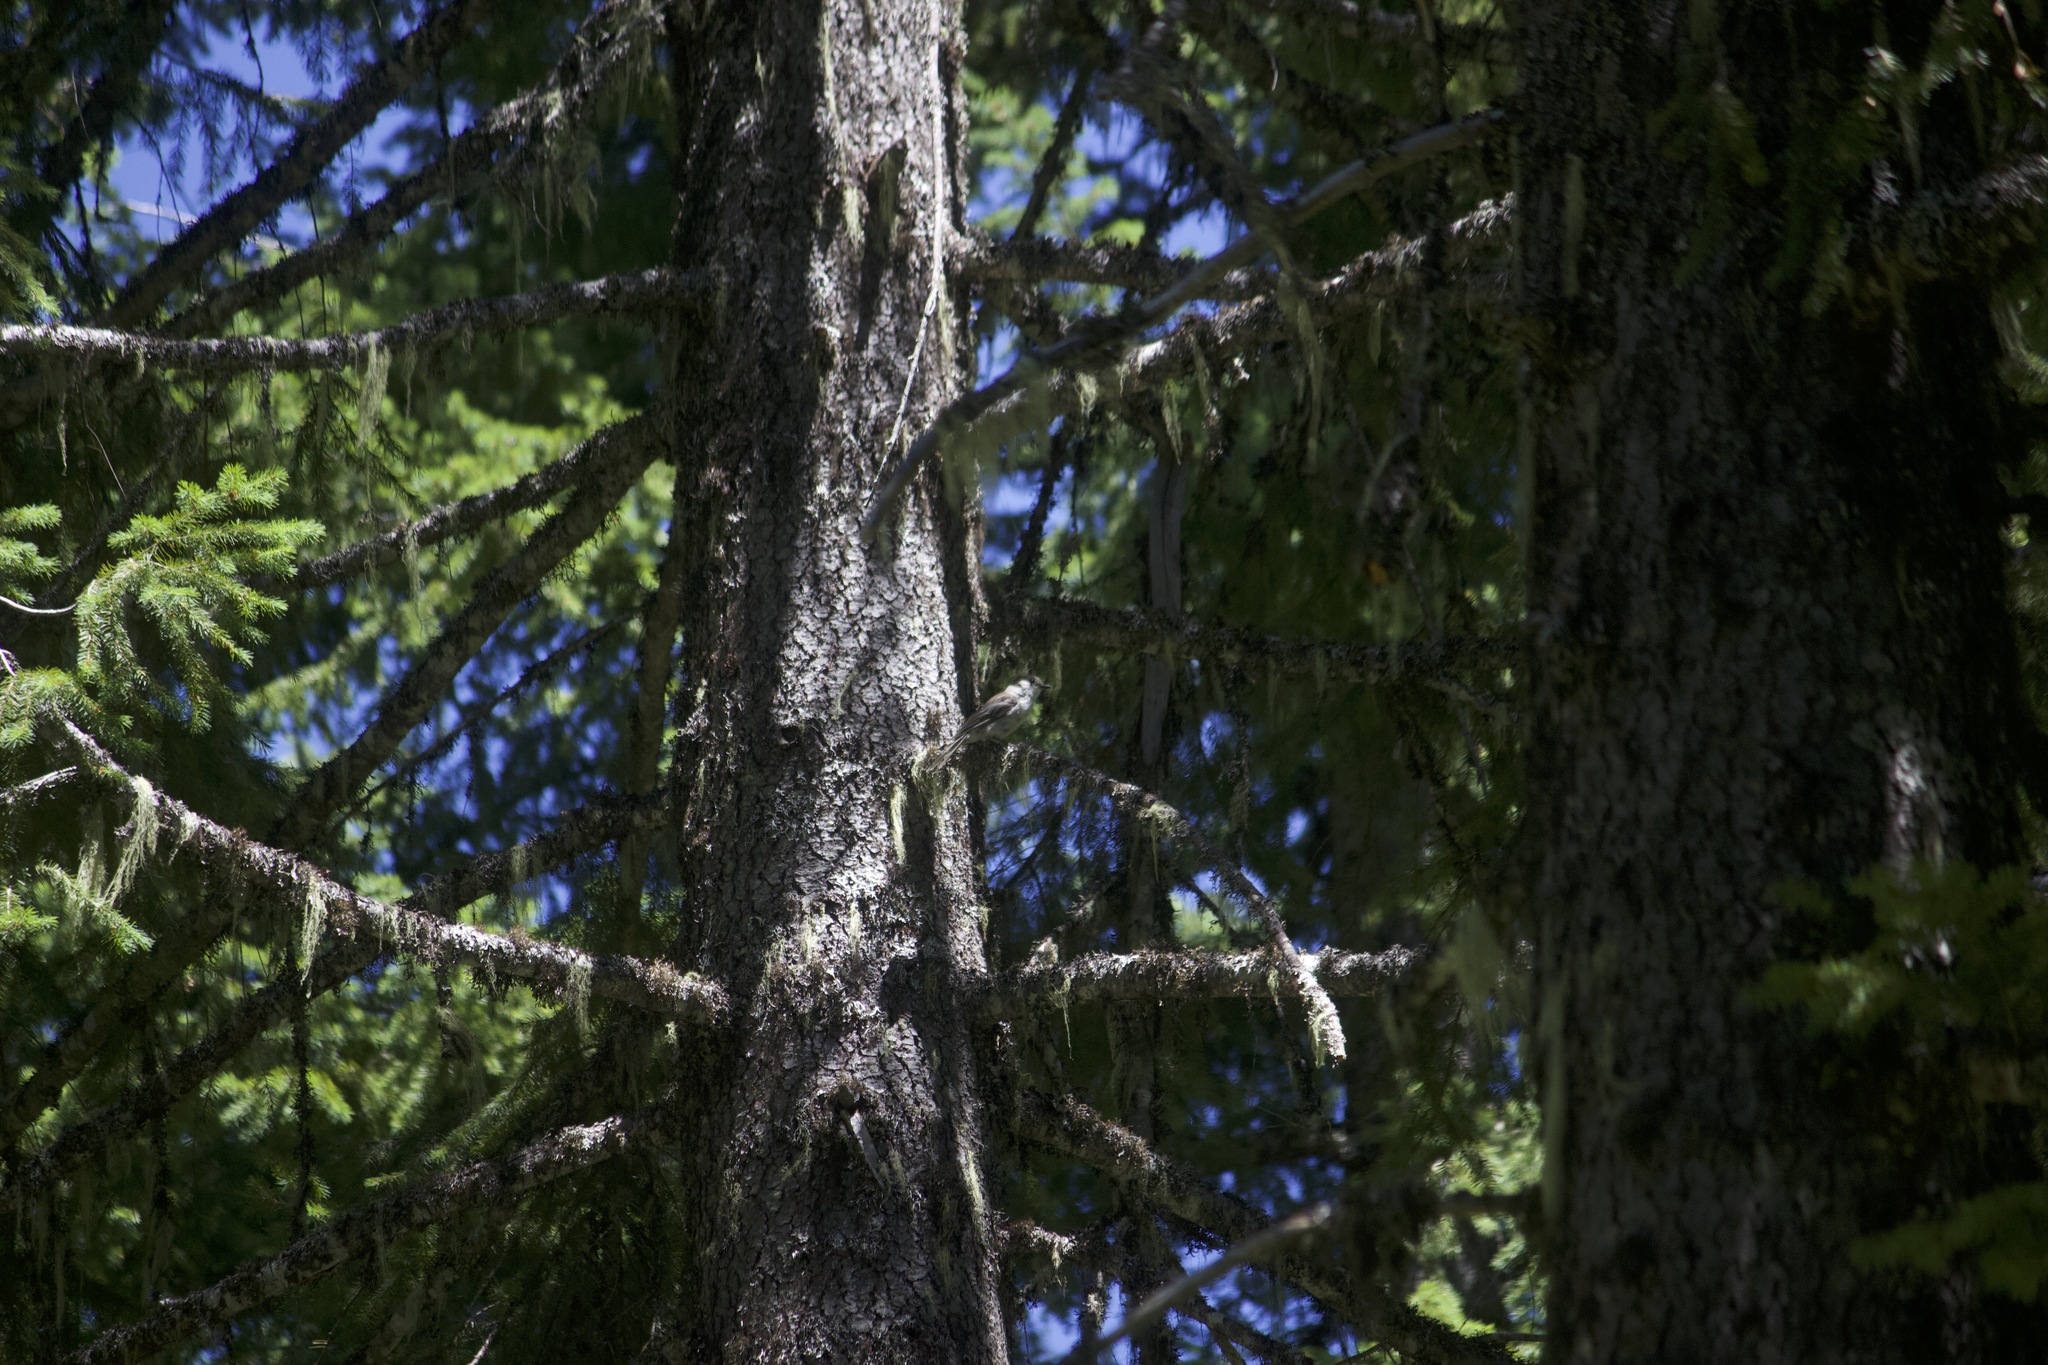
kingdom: Animalia
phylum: Chordata
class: Aves
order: Passeriformes
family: Corvidae
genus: Perisoreus
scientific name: Perisoreus canadensis
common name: Gray jay
